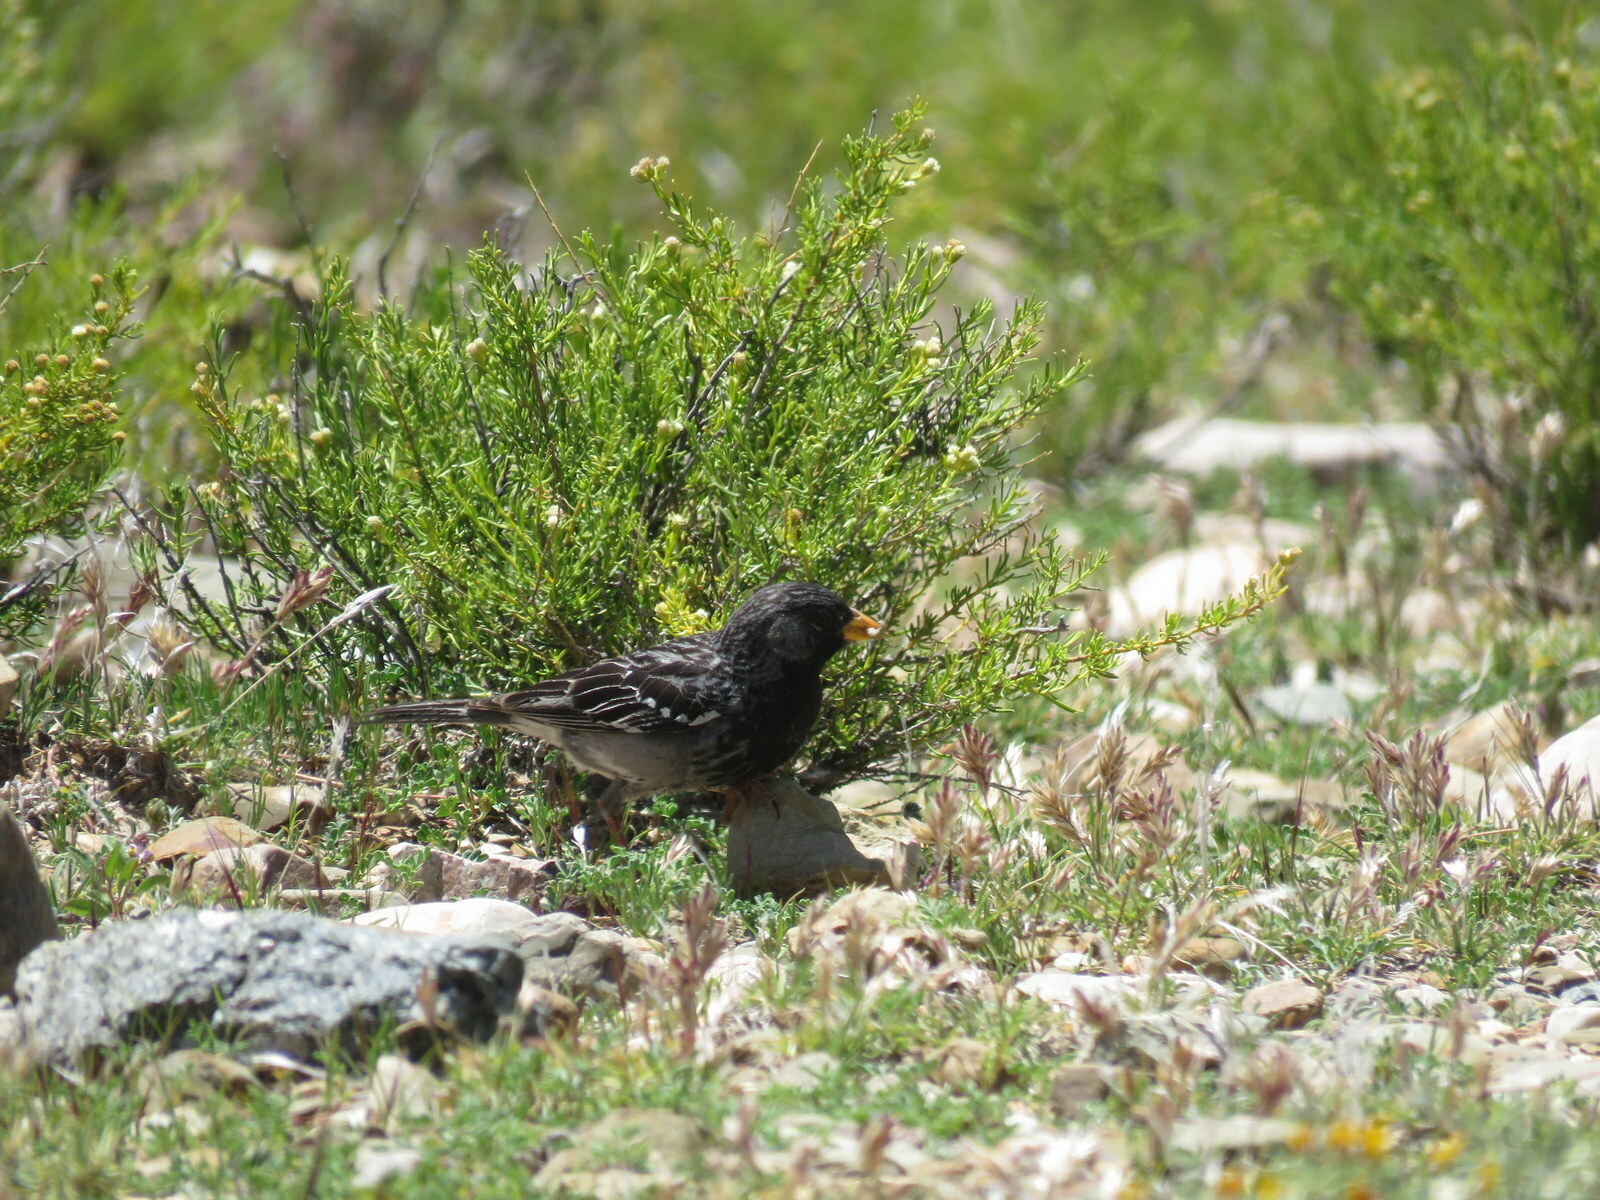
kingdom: Animalia
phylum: Chordata
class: Aves
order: Passeriformes
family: Thraupidae
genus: Rhopospina
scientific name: Rhopospina fruticeti
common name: Mourning sierra finch
